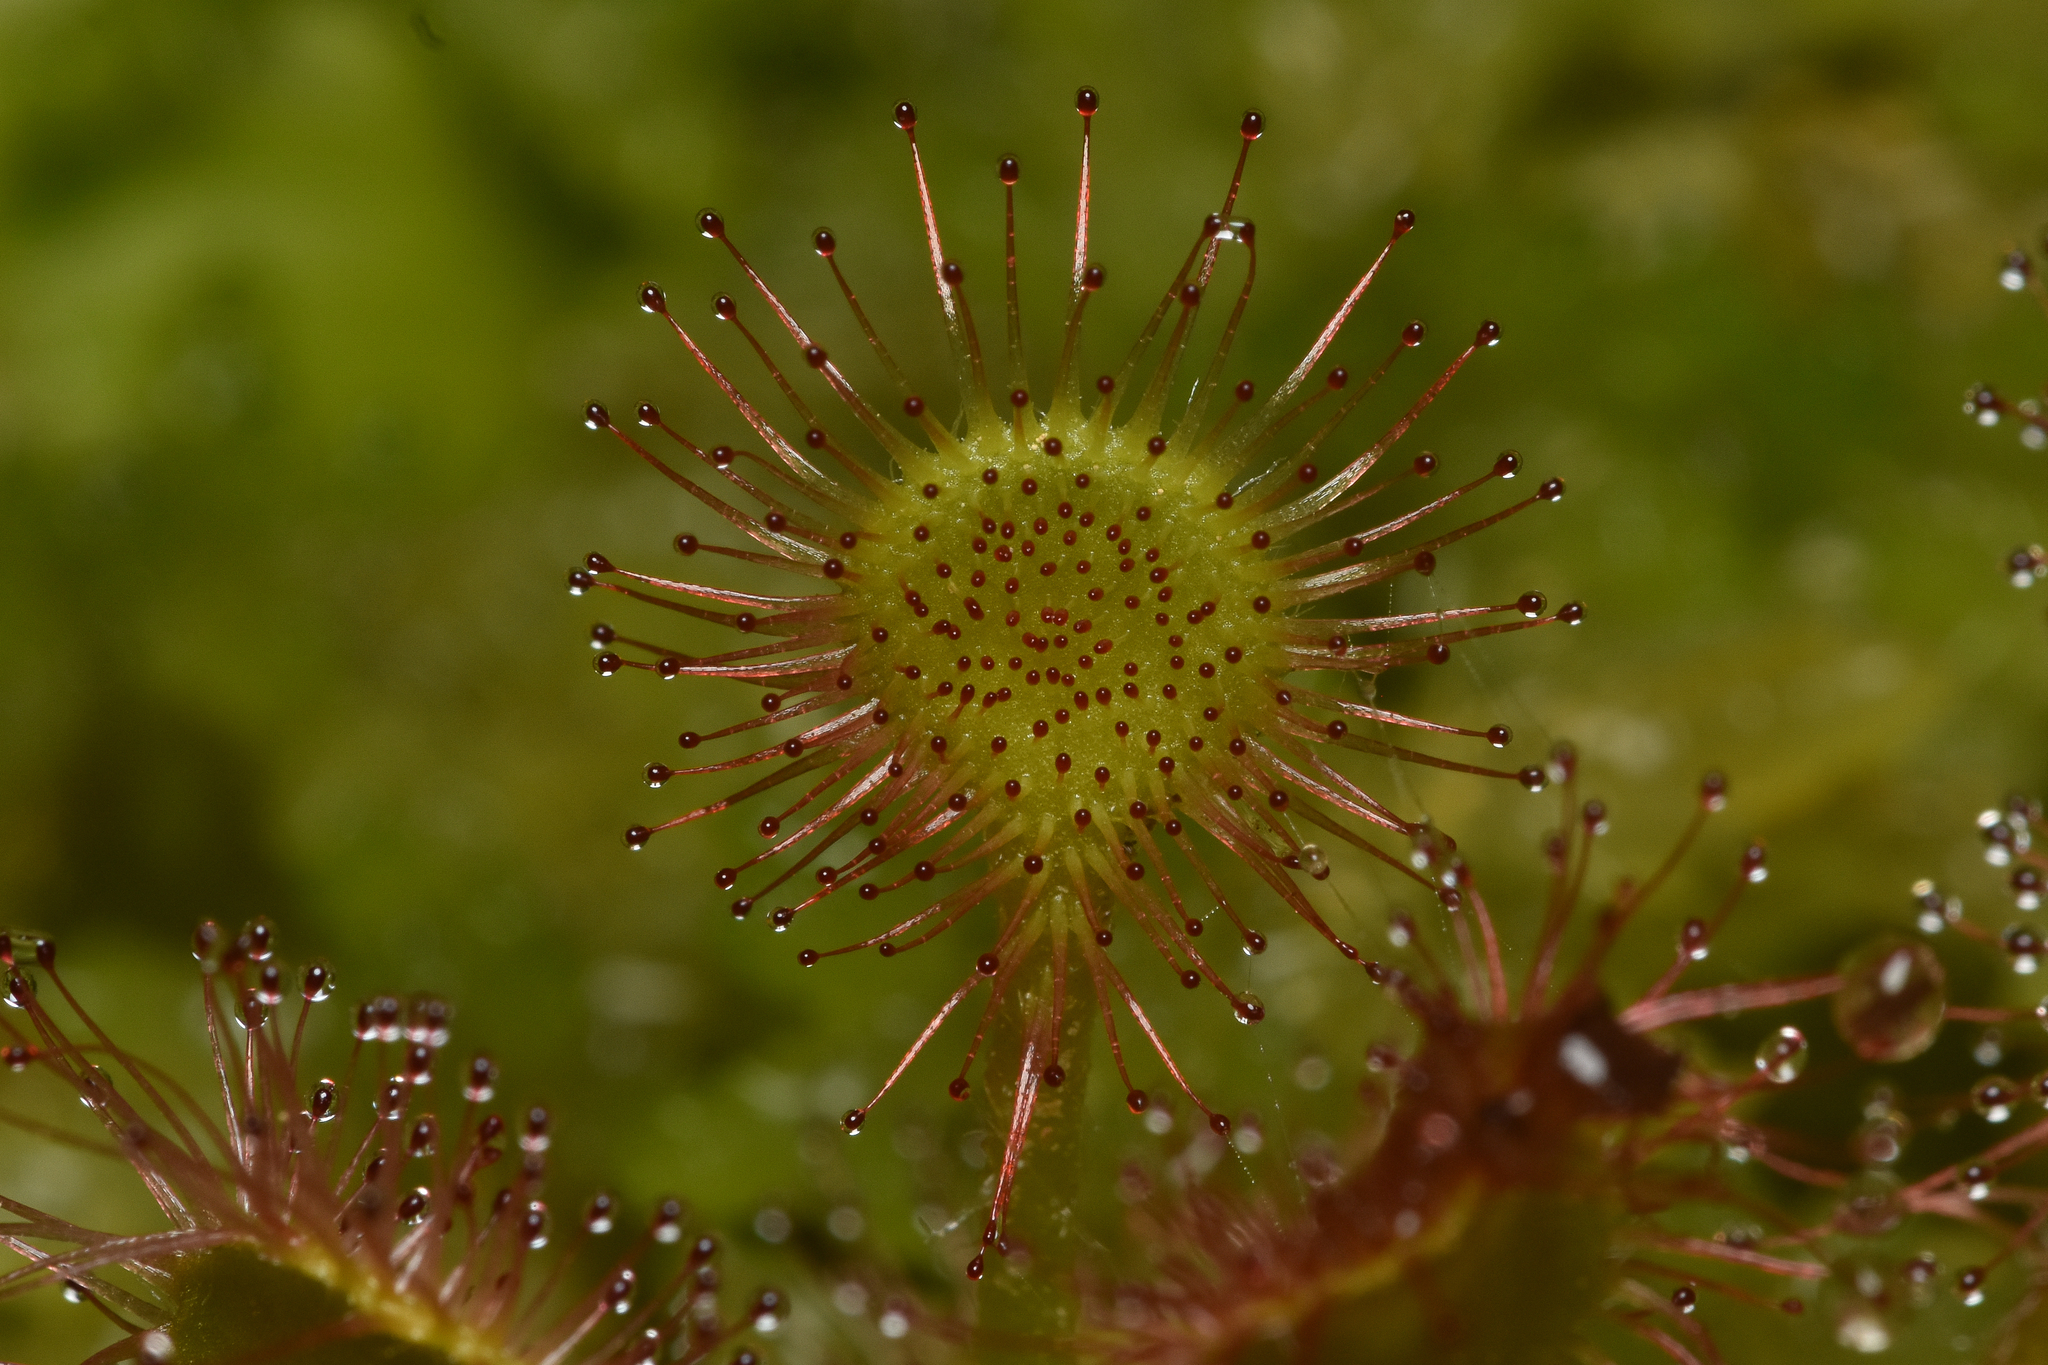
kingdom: Plantae
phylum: Tracheophyta
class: Magnoliopsida
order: Caryophyllales
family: Droseraceae
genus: Drosera
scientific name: Drosera rotundifolia
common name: Round-leaved sundew
